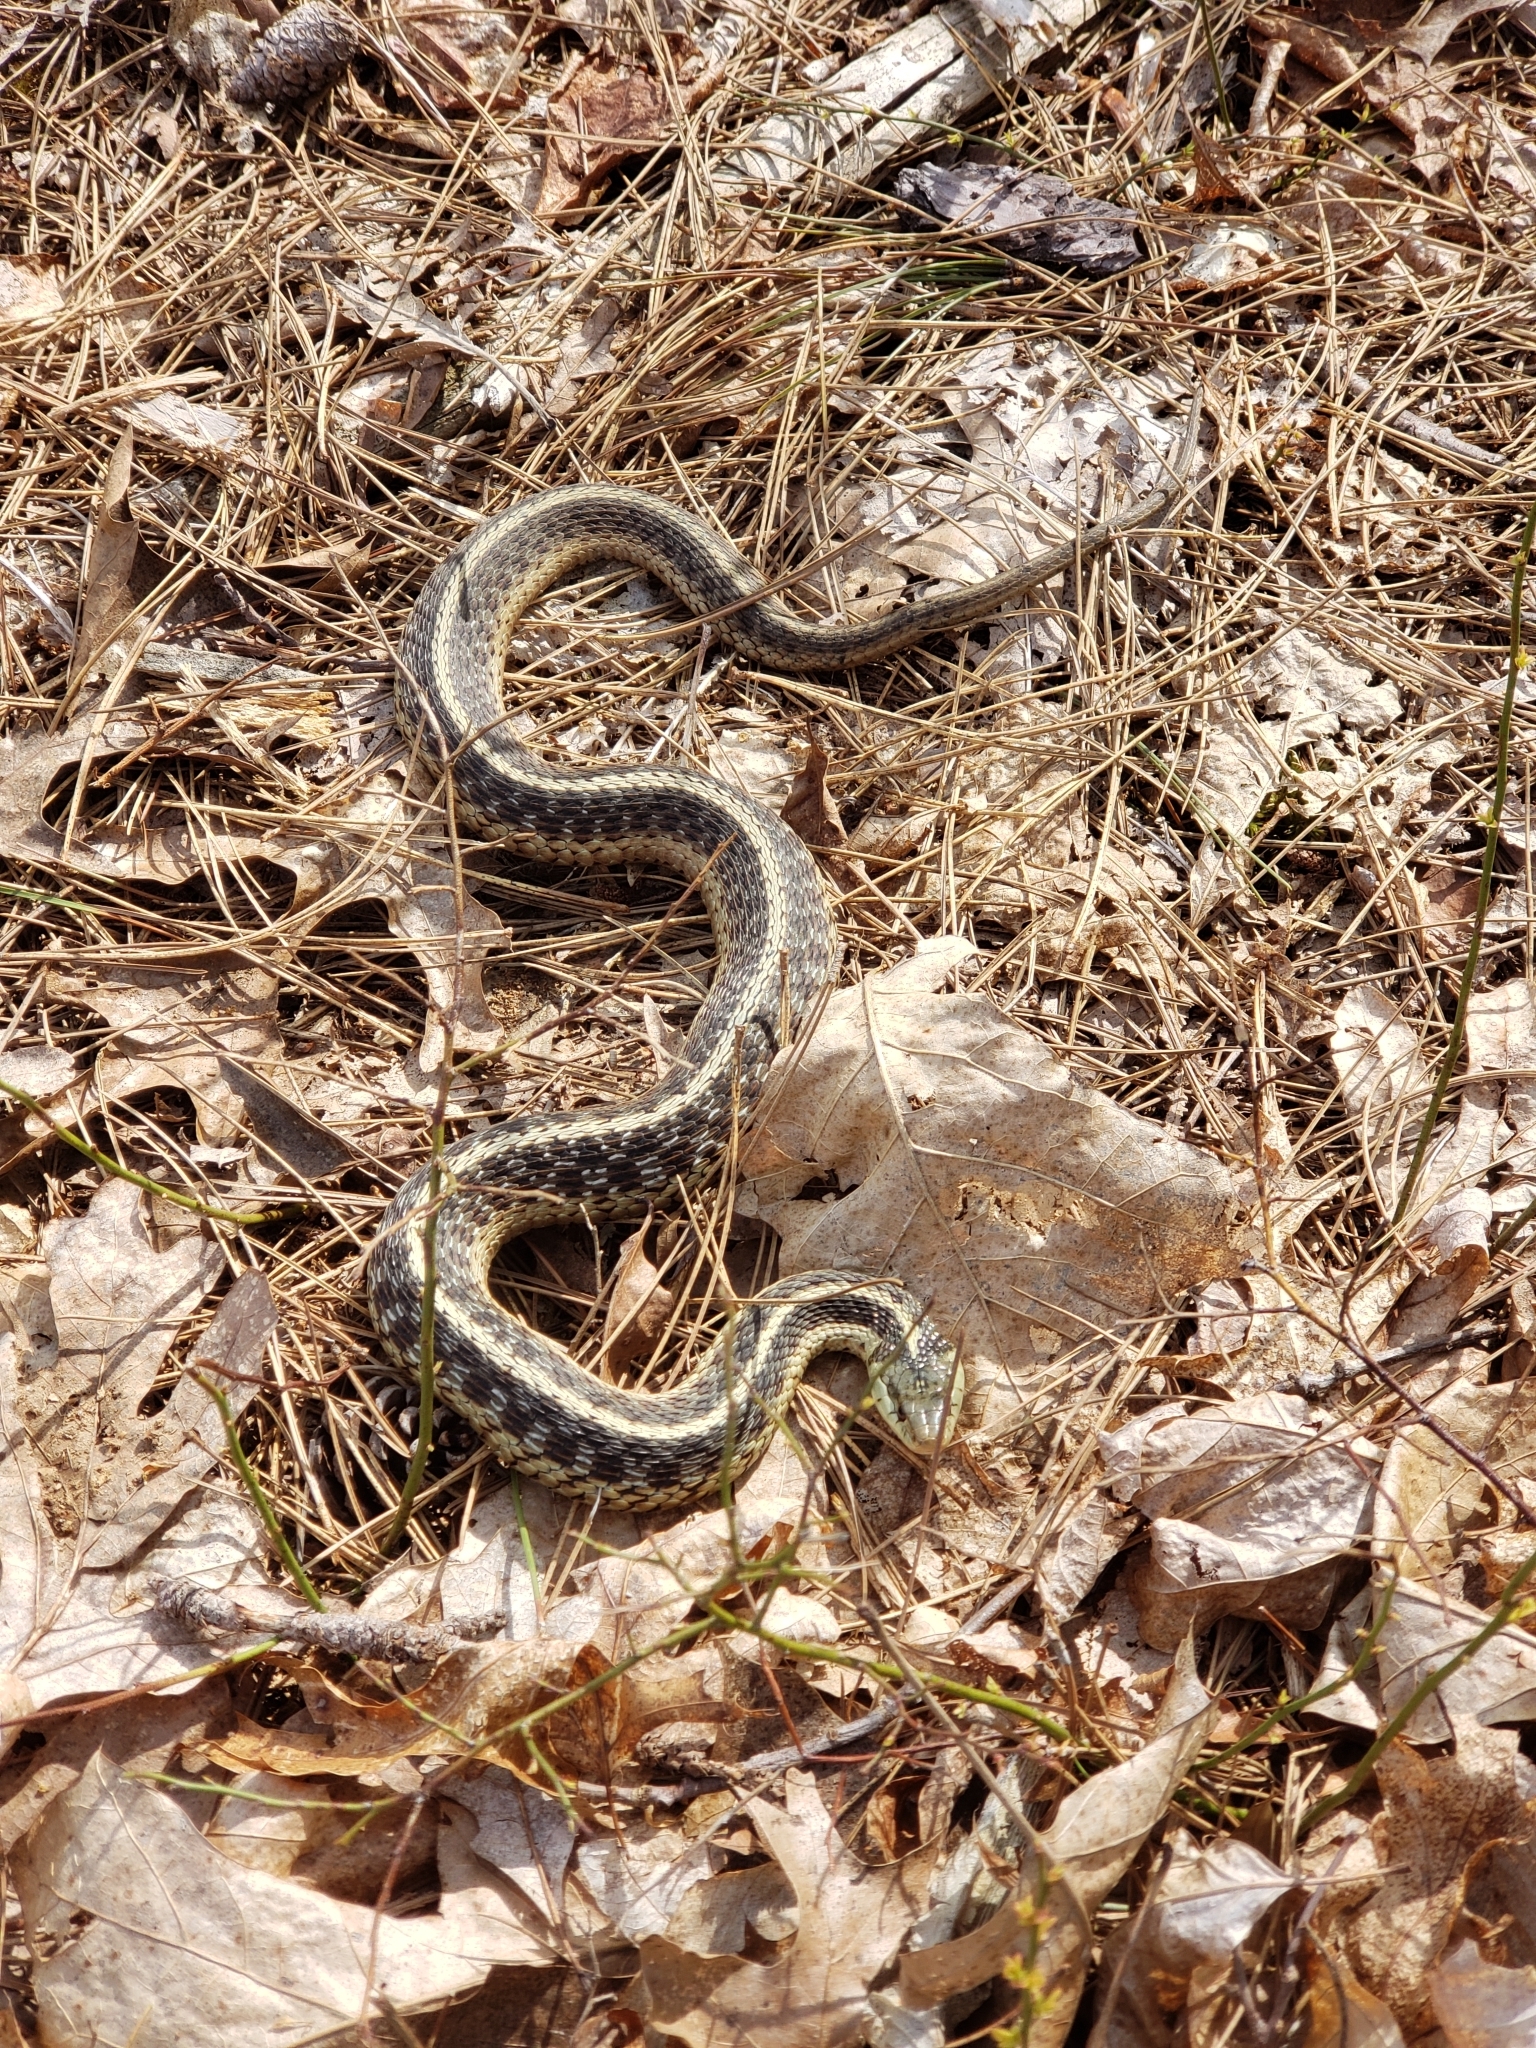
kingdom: Animalia
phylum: Chordata
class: Squamata
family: Colubridae
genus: Thamnophis
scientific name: Thamnophis sirtalis
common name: Common garter snake
